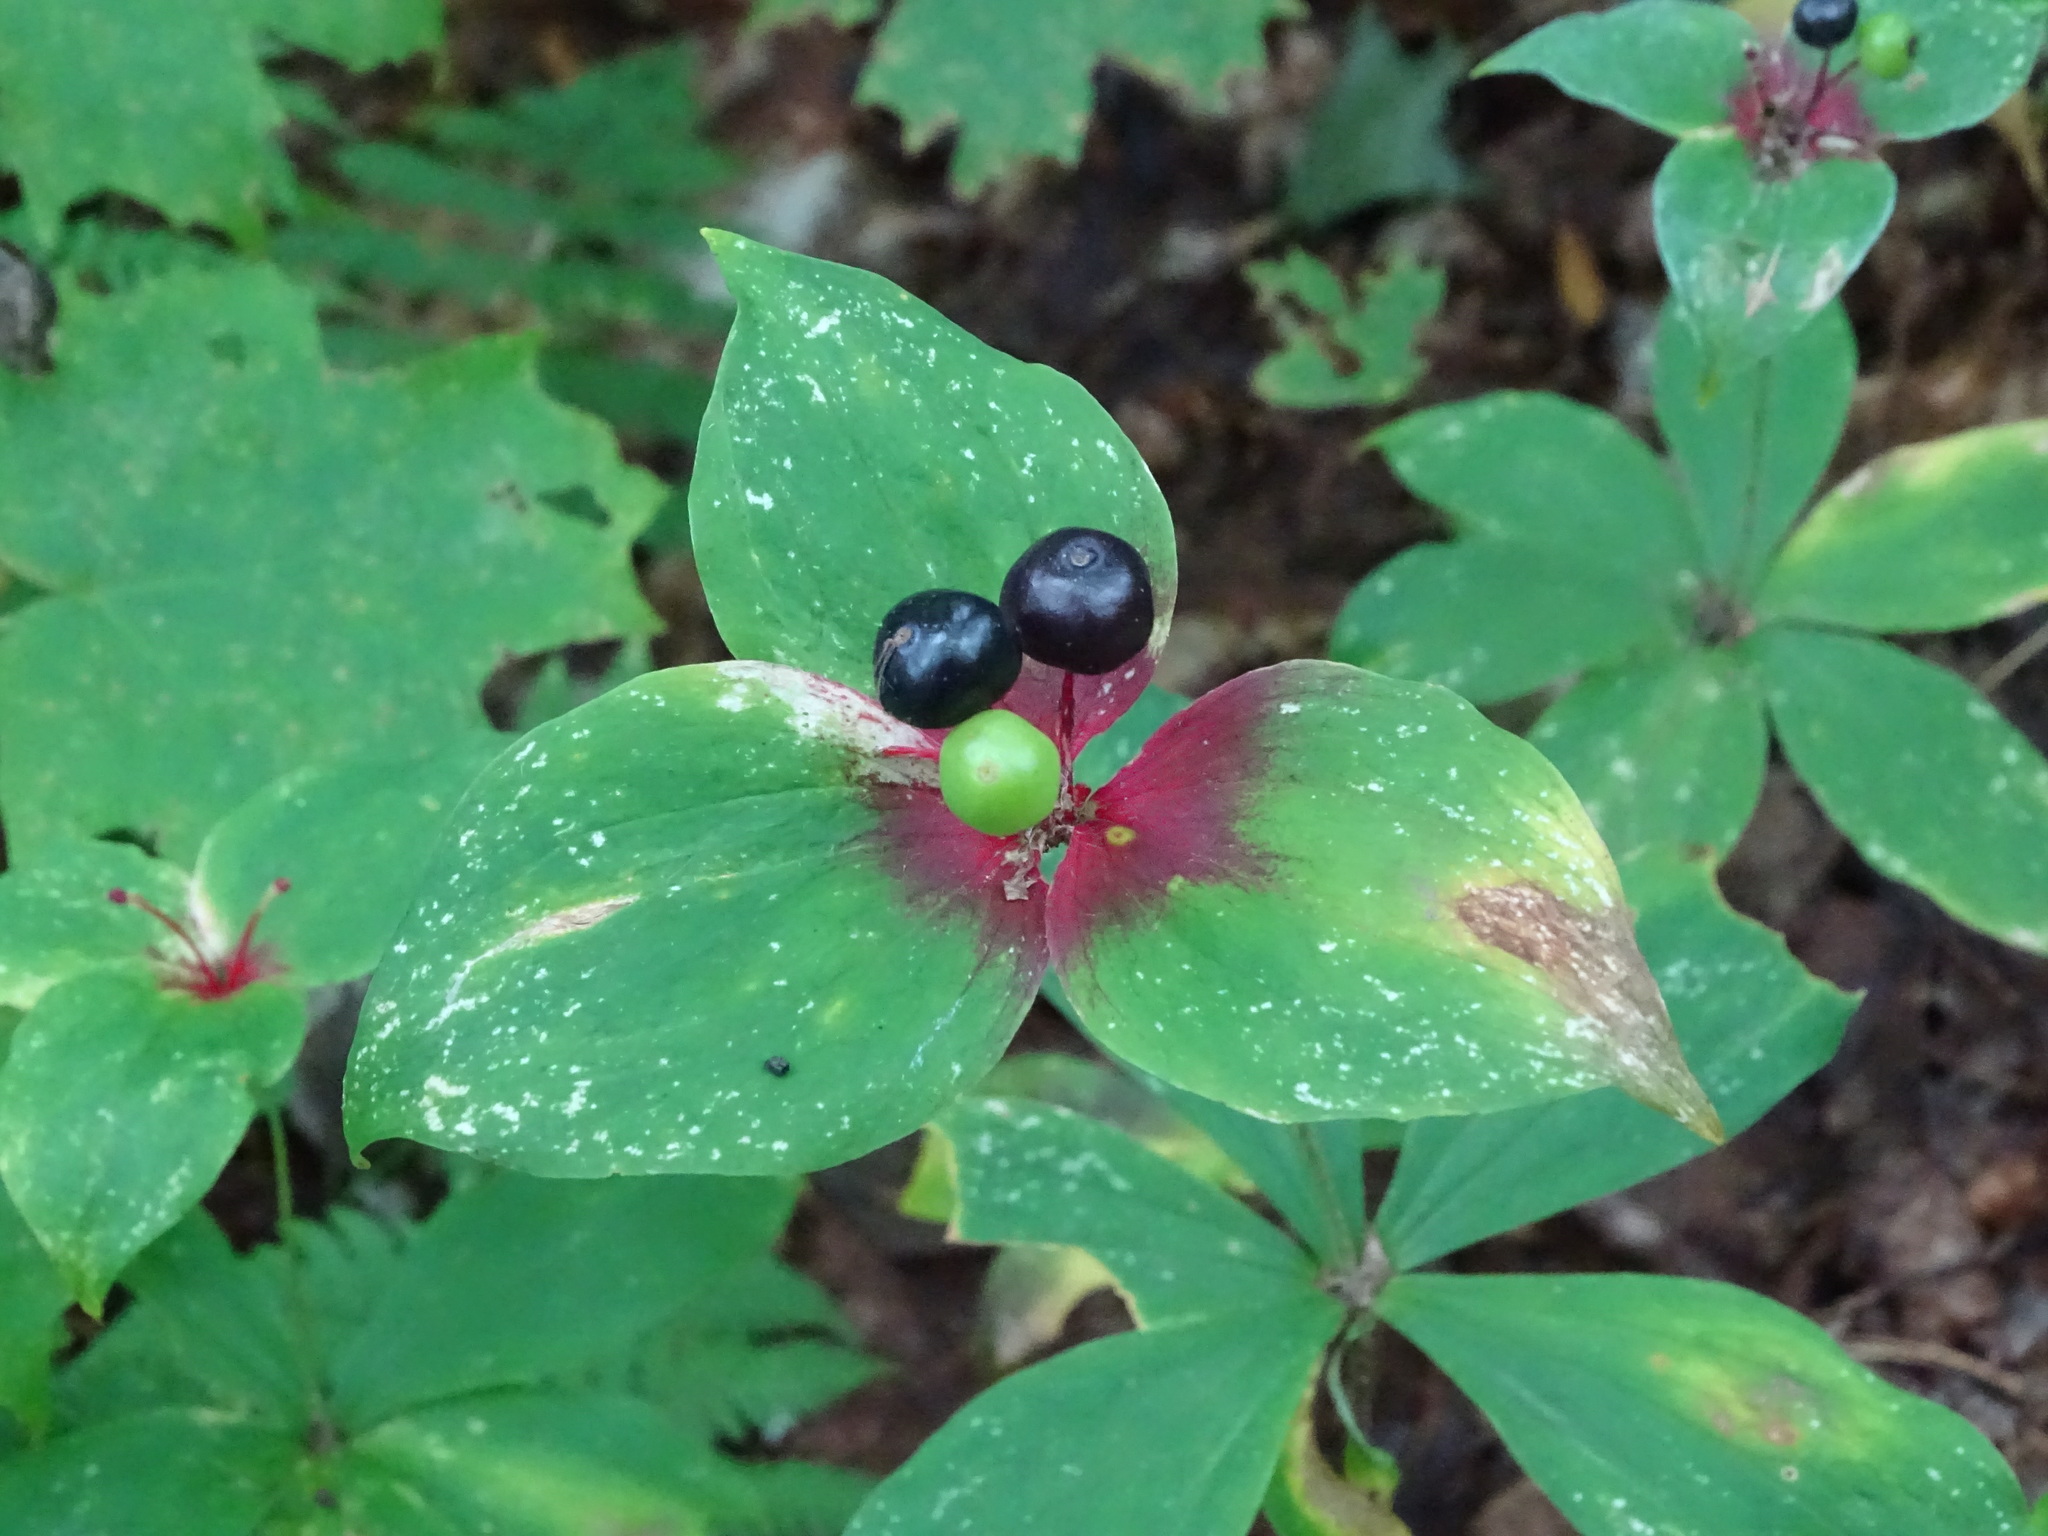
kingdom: Plantae
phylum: Tracheophyta
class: Liliopsida
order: Liliales
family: Liliaceae
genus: Medeola
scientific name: Medeola virginiana
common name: Indian cucumber-root
